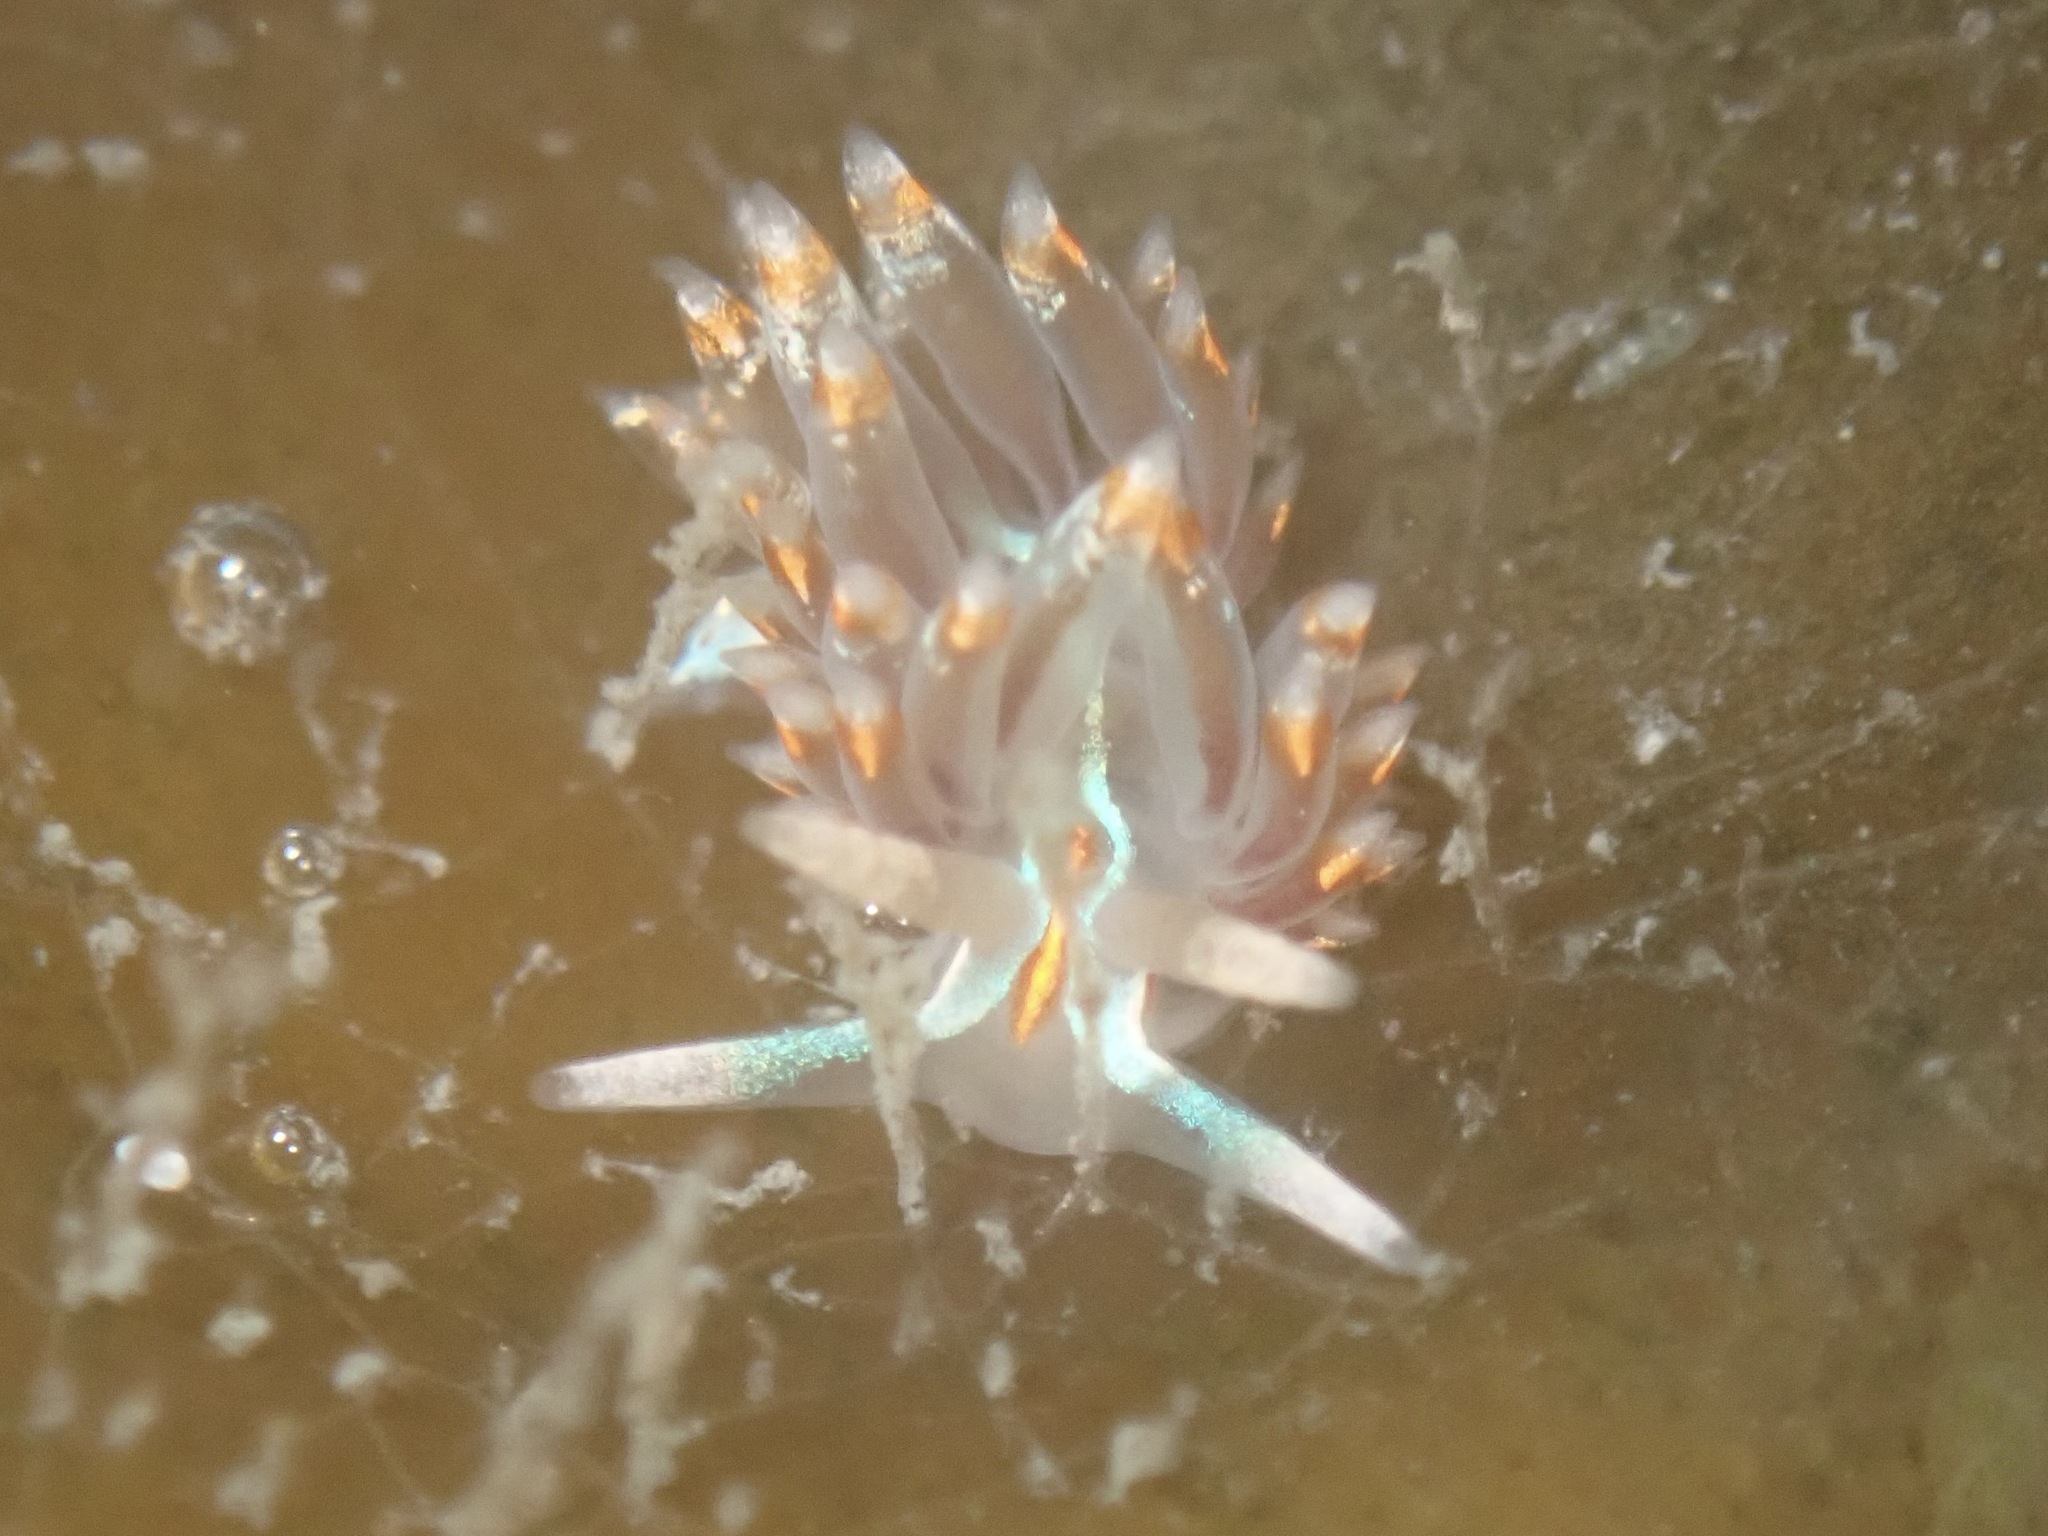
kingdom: Animalia
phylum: Mollusca
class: Gastropoda
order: Nudibranchia
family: Myrrhinidae
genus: Hermissenda
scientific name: Hermissenda opalescens
